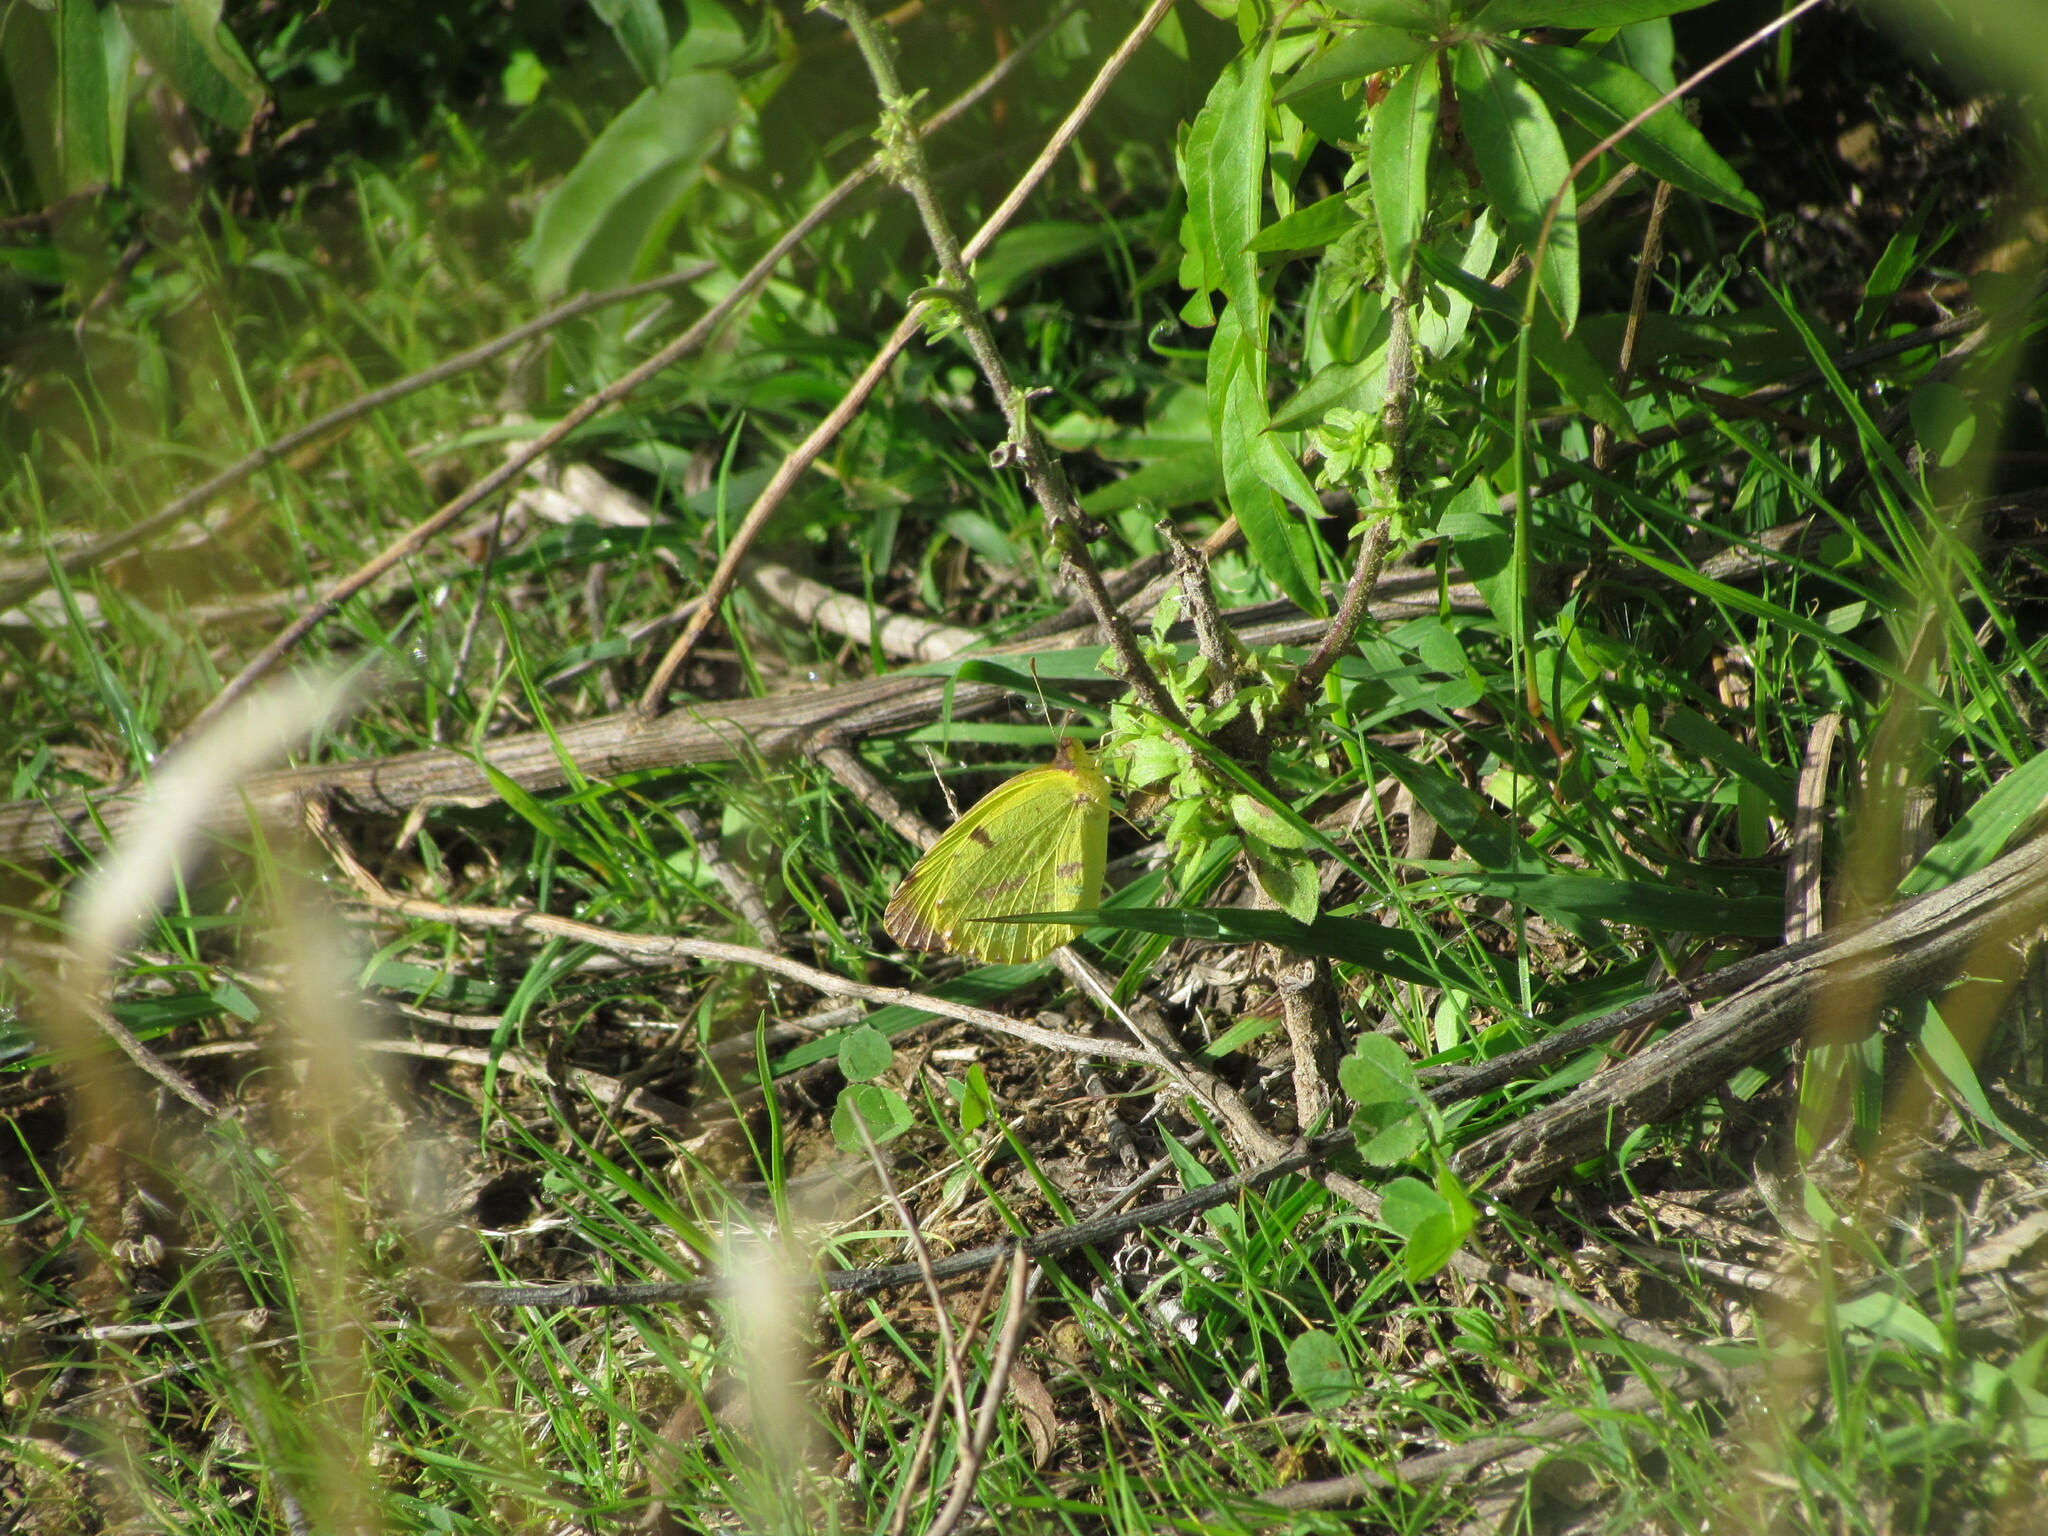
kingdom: Animalia
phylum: Arthropoda
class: Insecta
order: Lepidoptera
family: Pieridae
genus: Teriocolias
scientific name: Teriocolias
